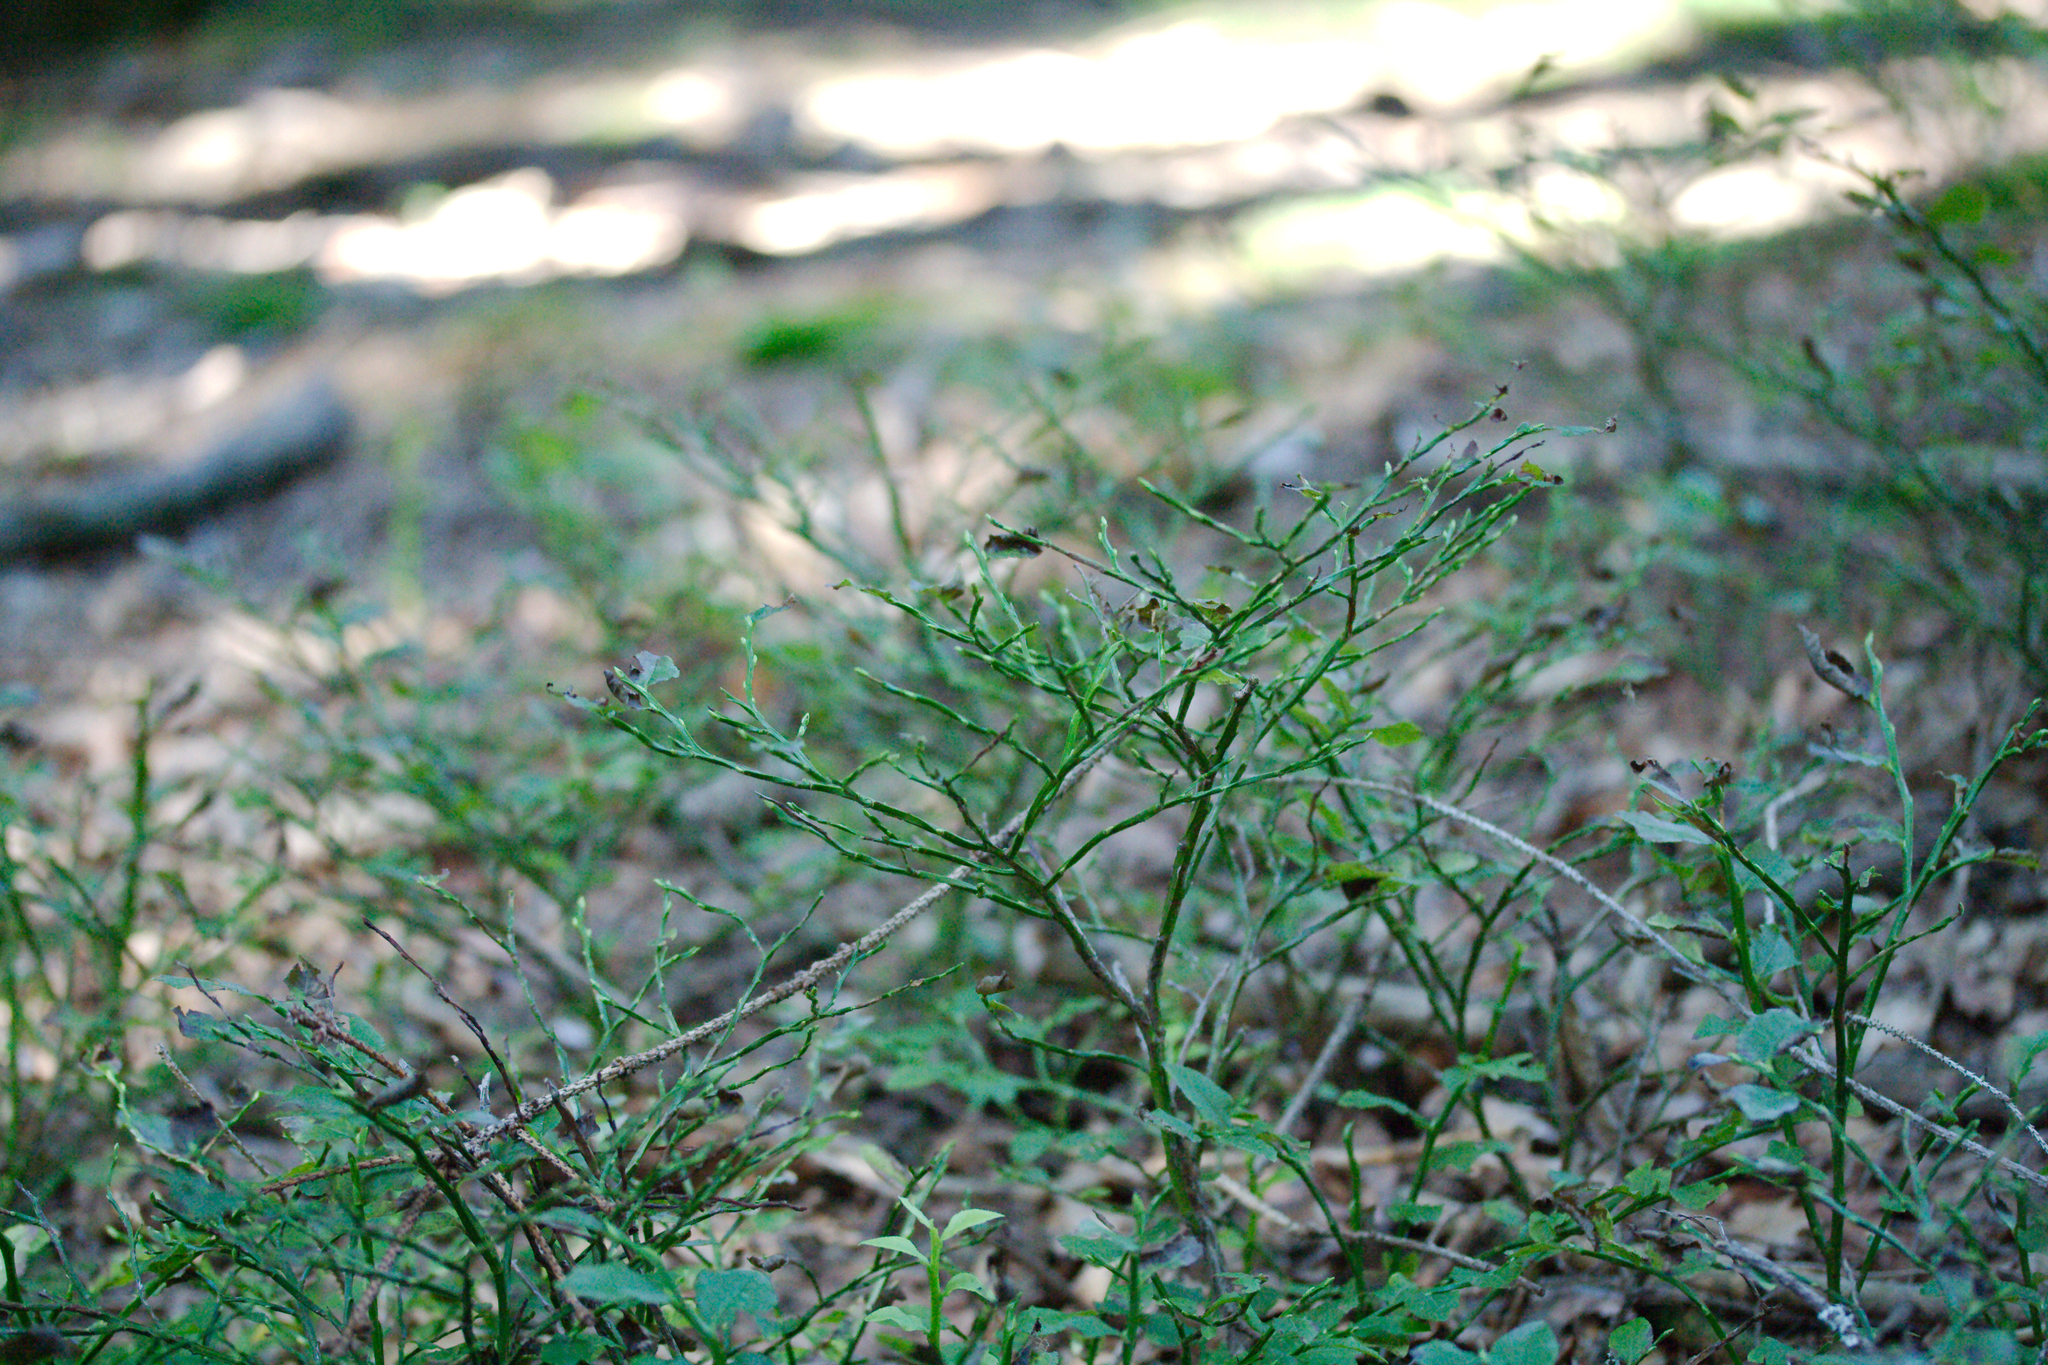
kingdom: Plantae
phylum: Tracheophyta
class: Magnoliopsida
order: Ericales
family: Ericaceae
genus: Vaccinium
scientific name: Vaccinium myrtillus
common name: Bilberry
